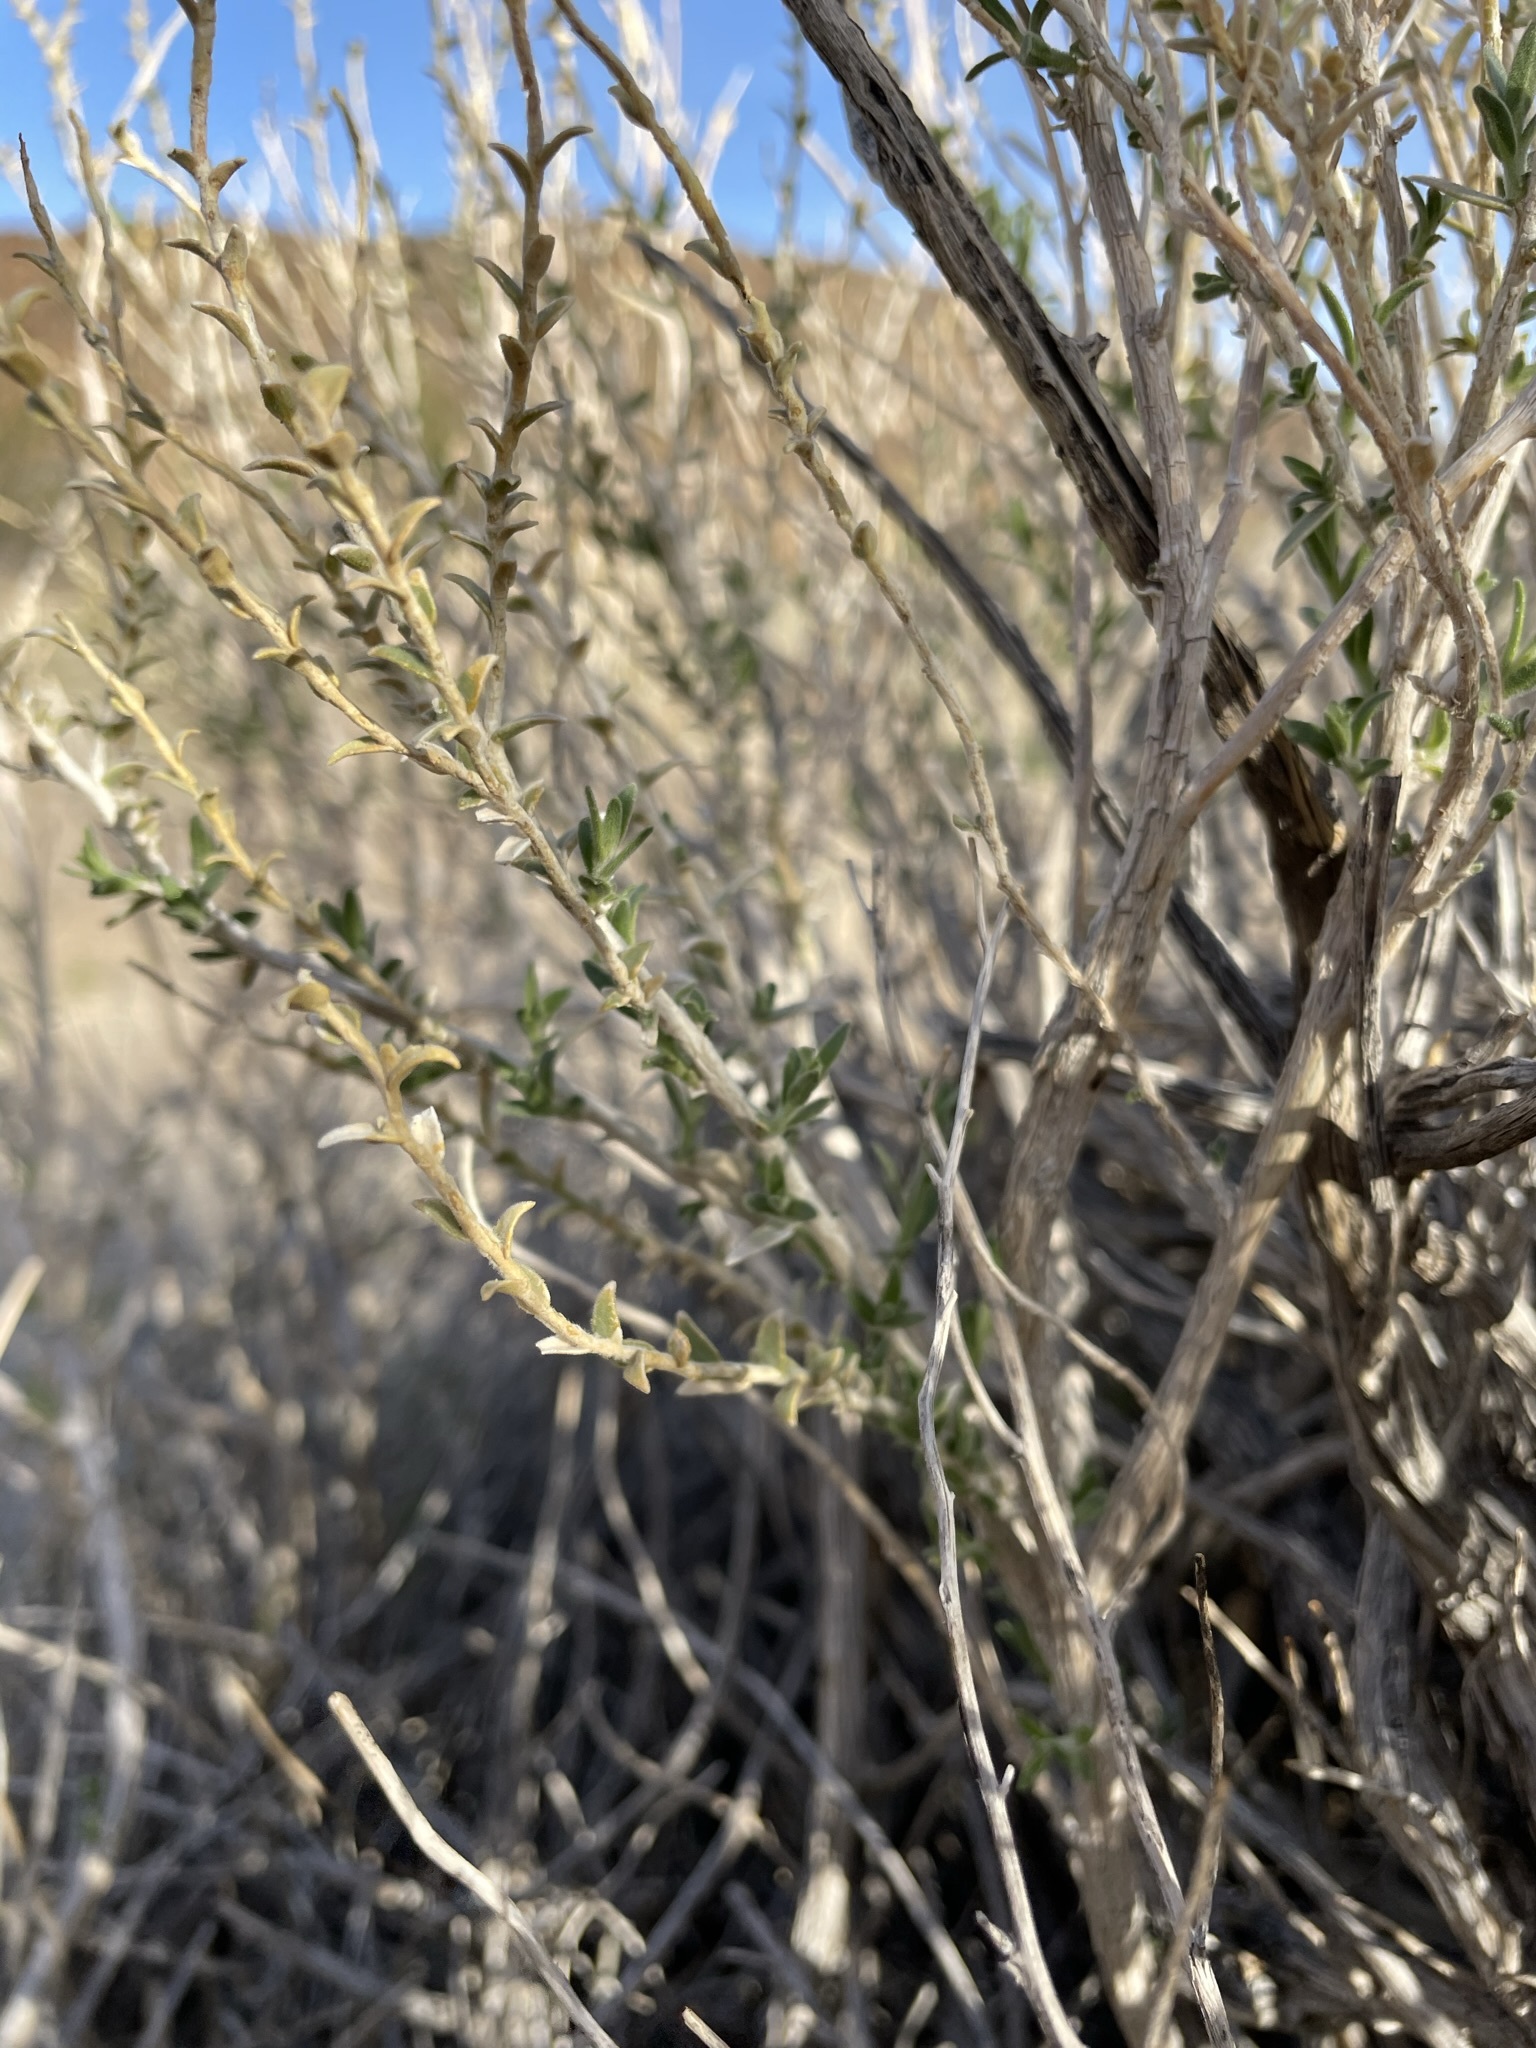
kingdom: Plantae
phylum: Tracheophyta
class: Magnoliopsida
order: Cornales
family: Loasaceae
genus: Petalonyx
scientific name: Petalonyx thurberi
